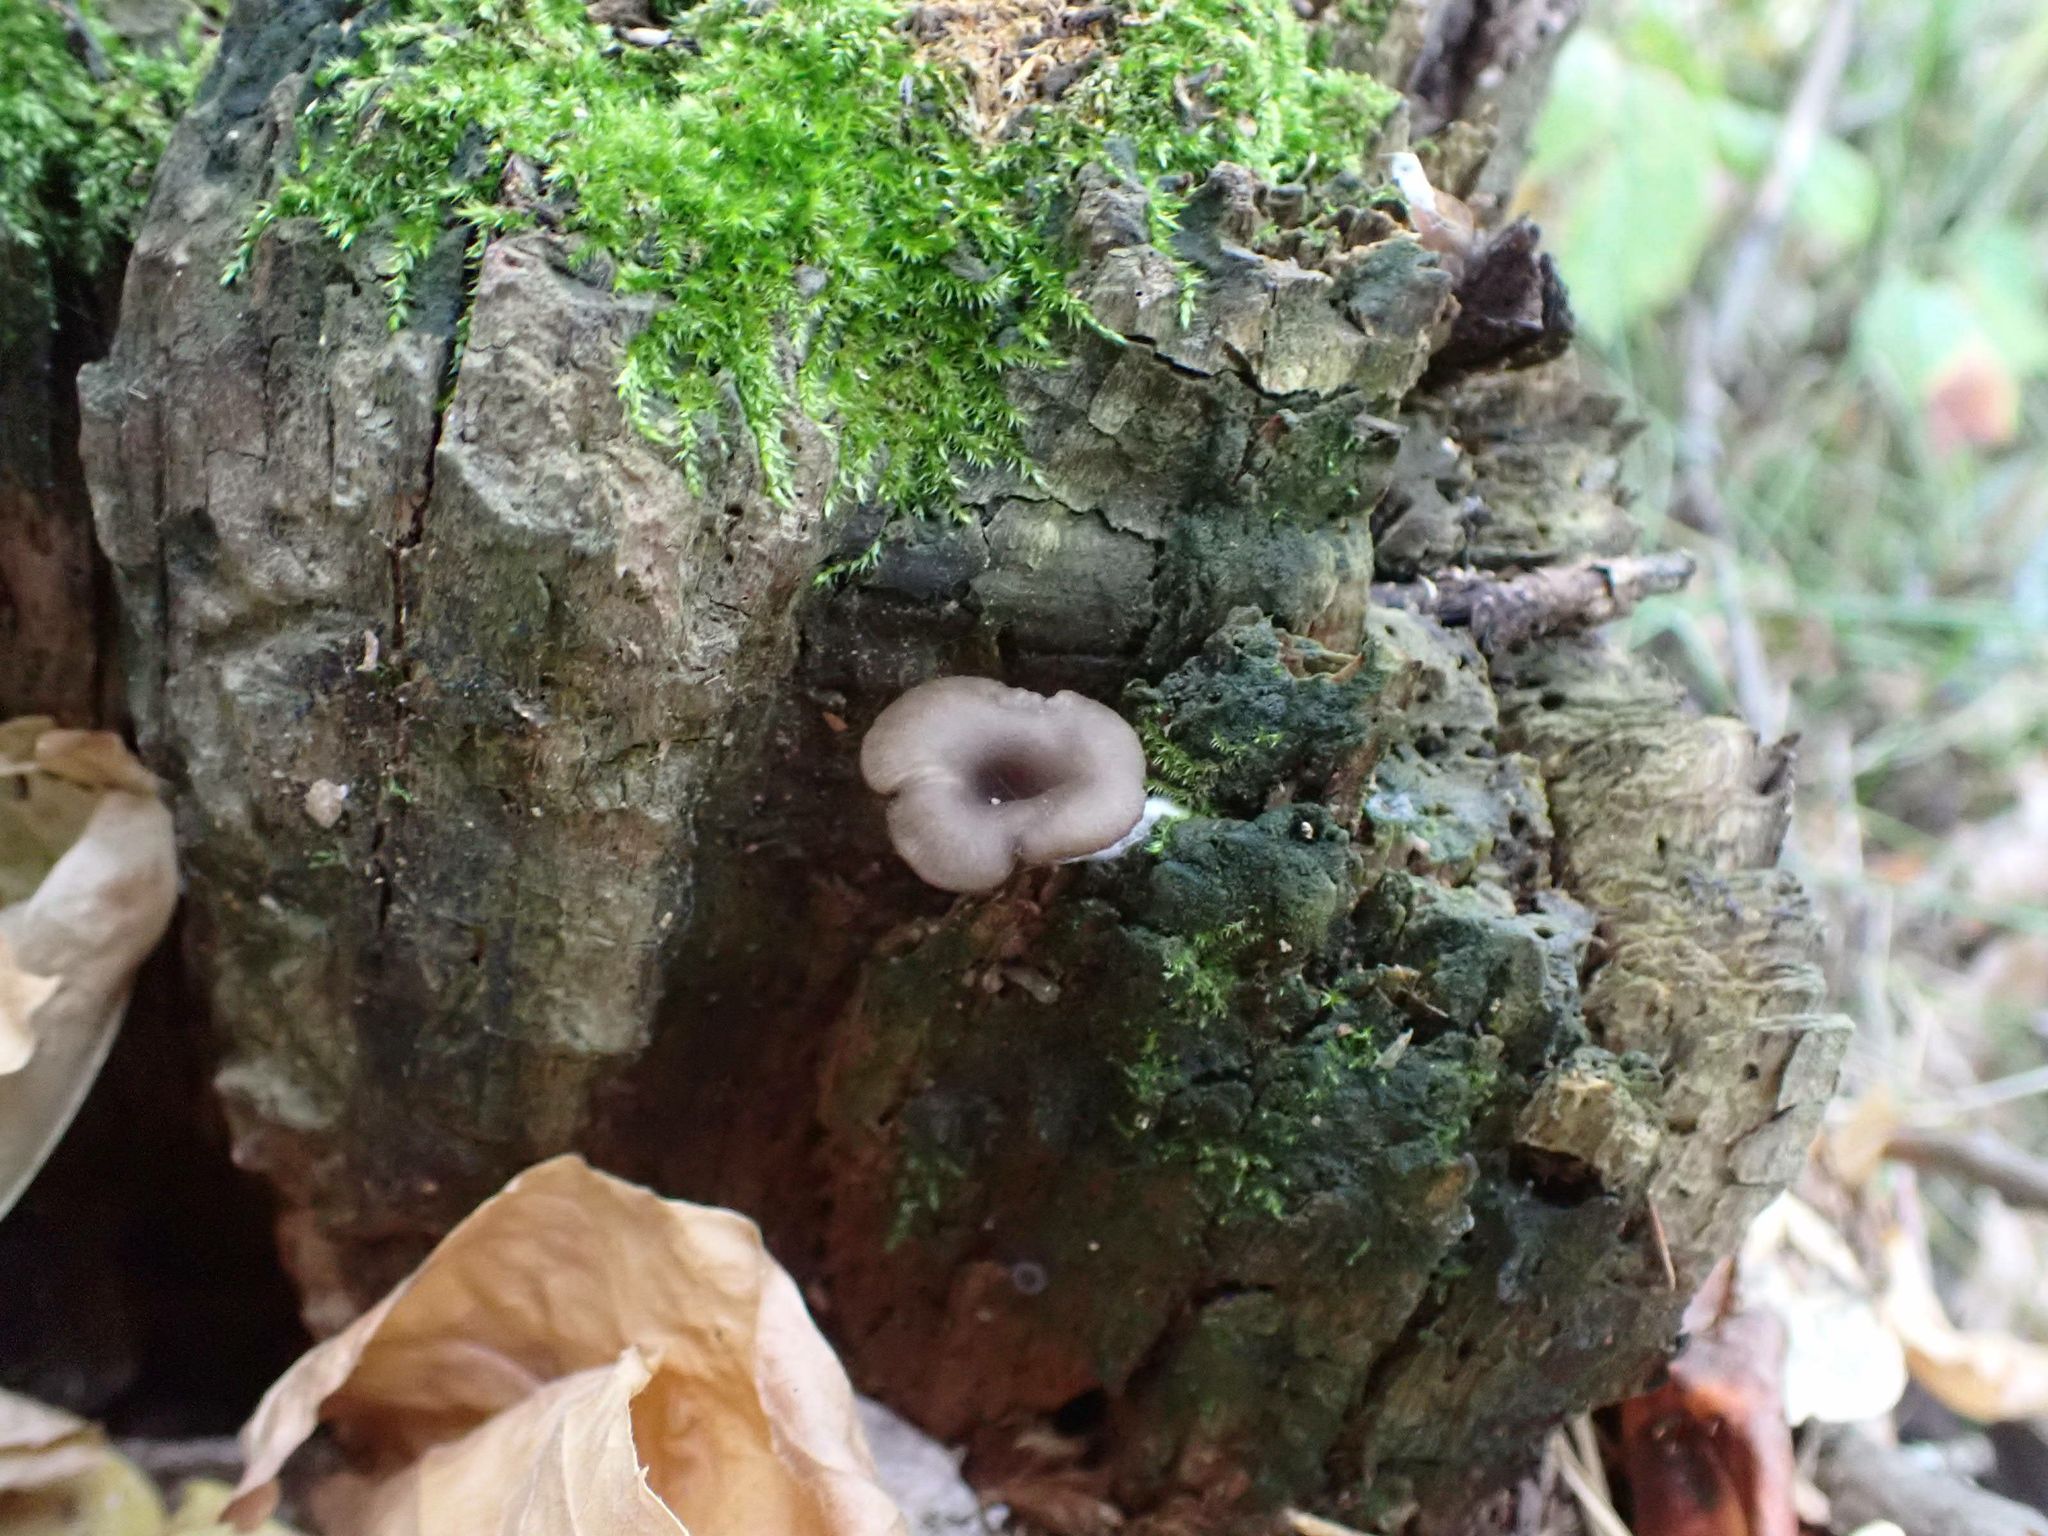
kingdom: Fungi
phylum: Basidiomycota
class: Agaricomycetes
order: Agaricales
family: Hygrophoraceae
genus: Arrhenia
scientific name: Arrhenia epichysium
